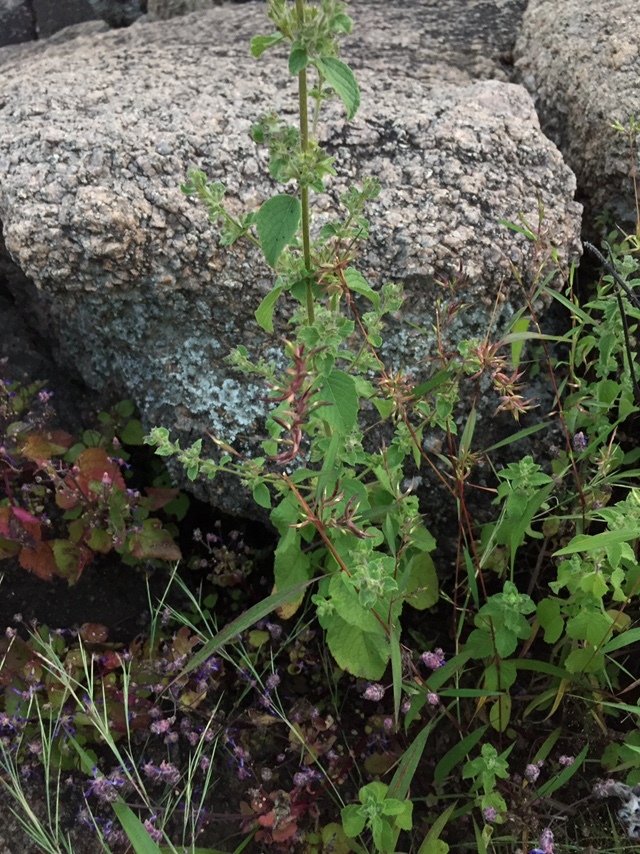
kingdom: Plantae
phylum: Tracheophyta
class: Liliopsida
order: Poales
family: Poaceae
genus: Apluda
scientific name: Apluda mutica
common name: Mauritian grass
